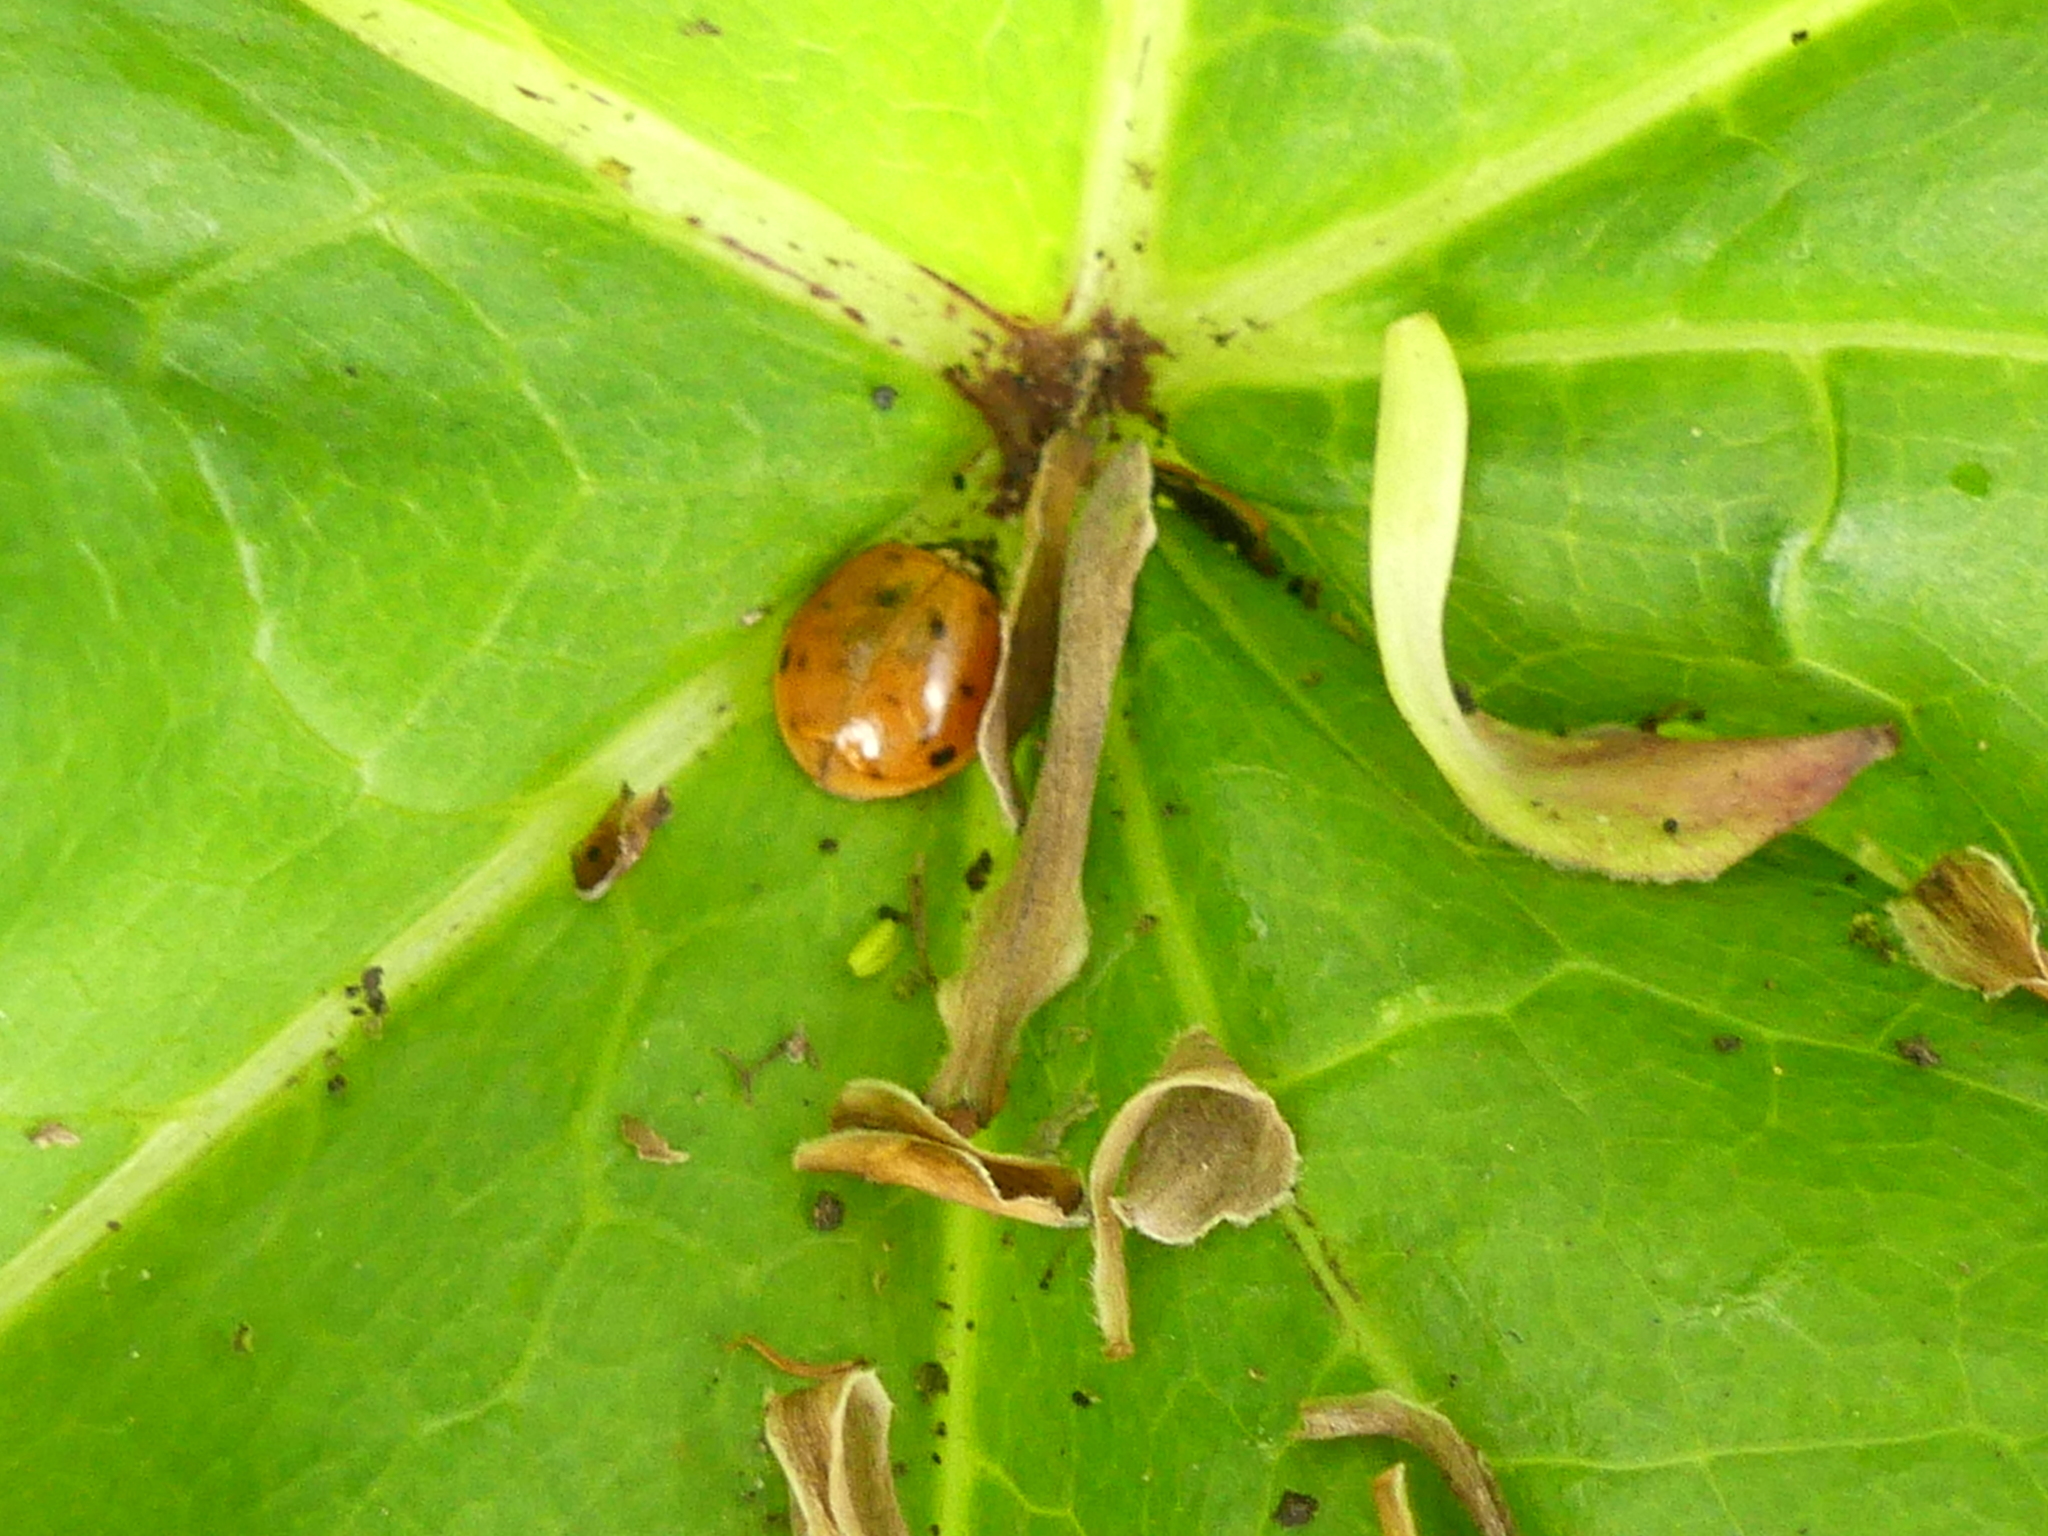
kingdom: Animalia
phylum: Arthropoda
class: Insecta
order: Coleoptera
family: Coccinellidae
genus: Harmonia
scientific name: Harmonia axyridis
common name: Harlequin ladybird
